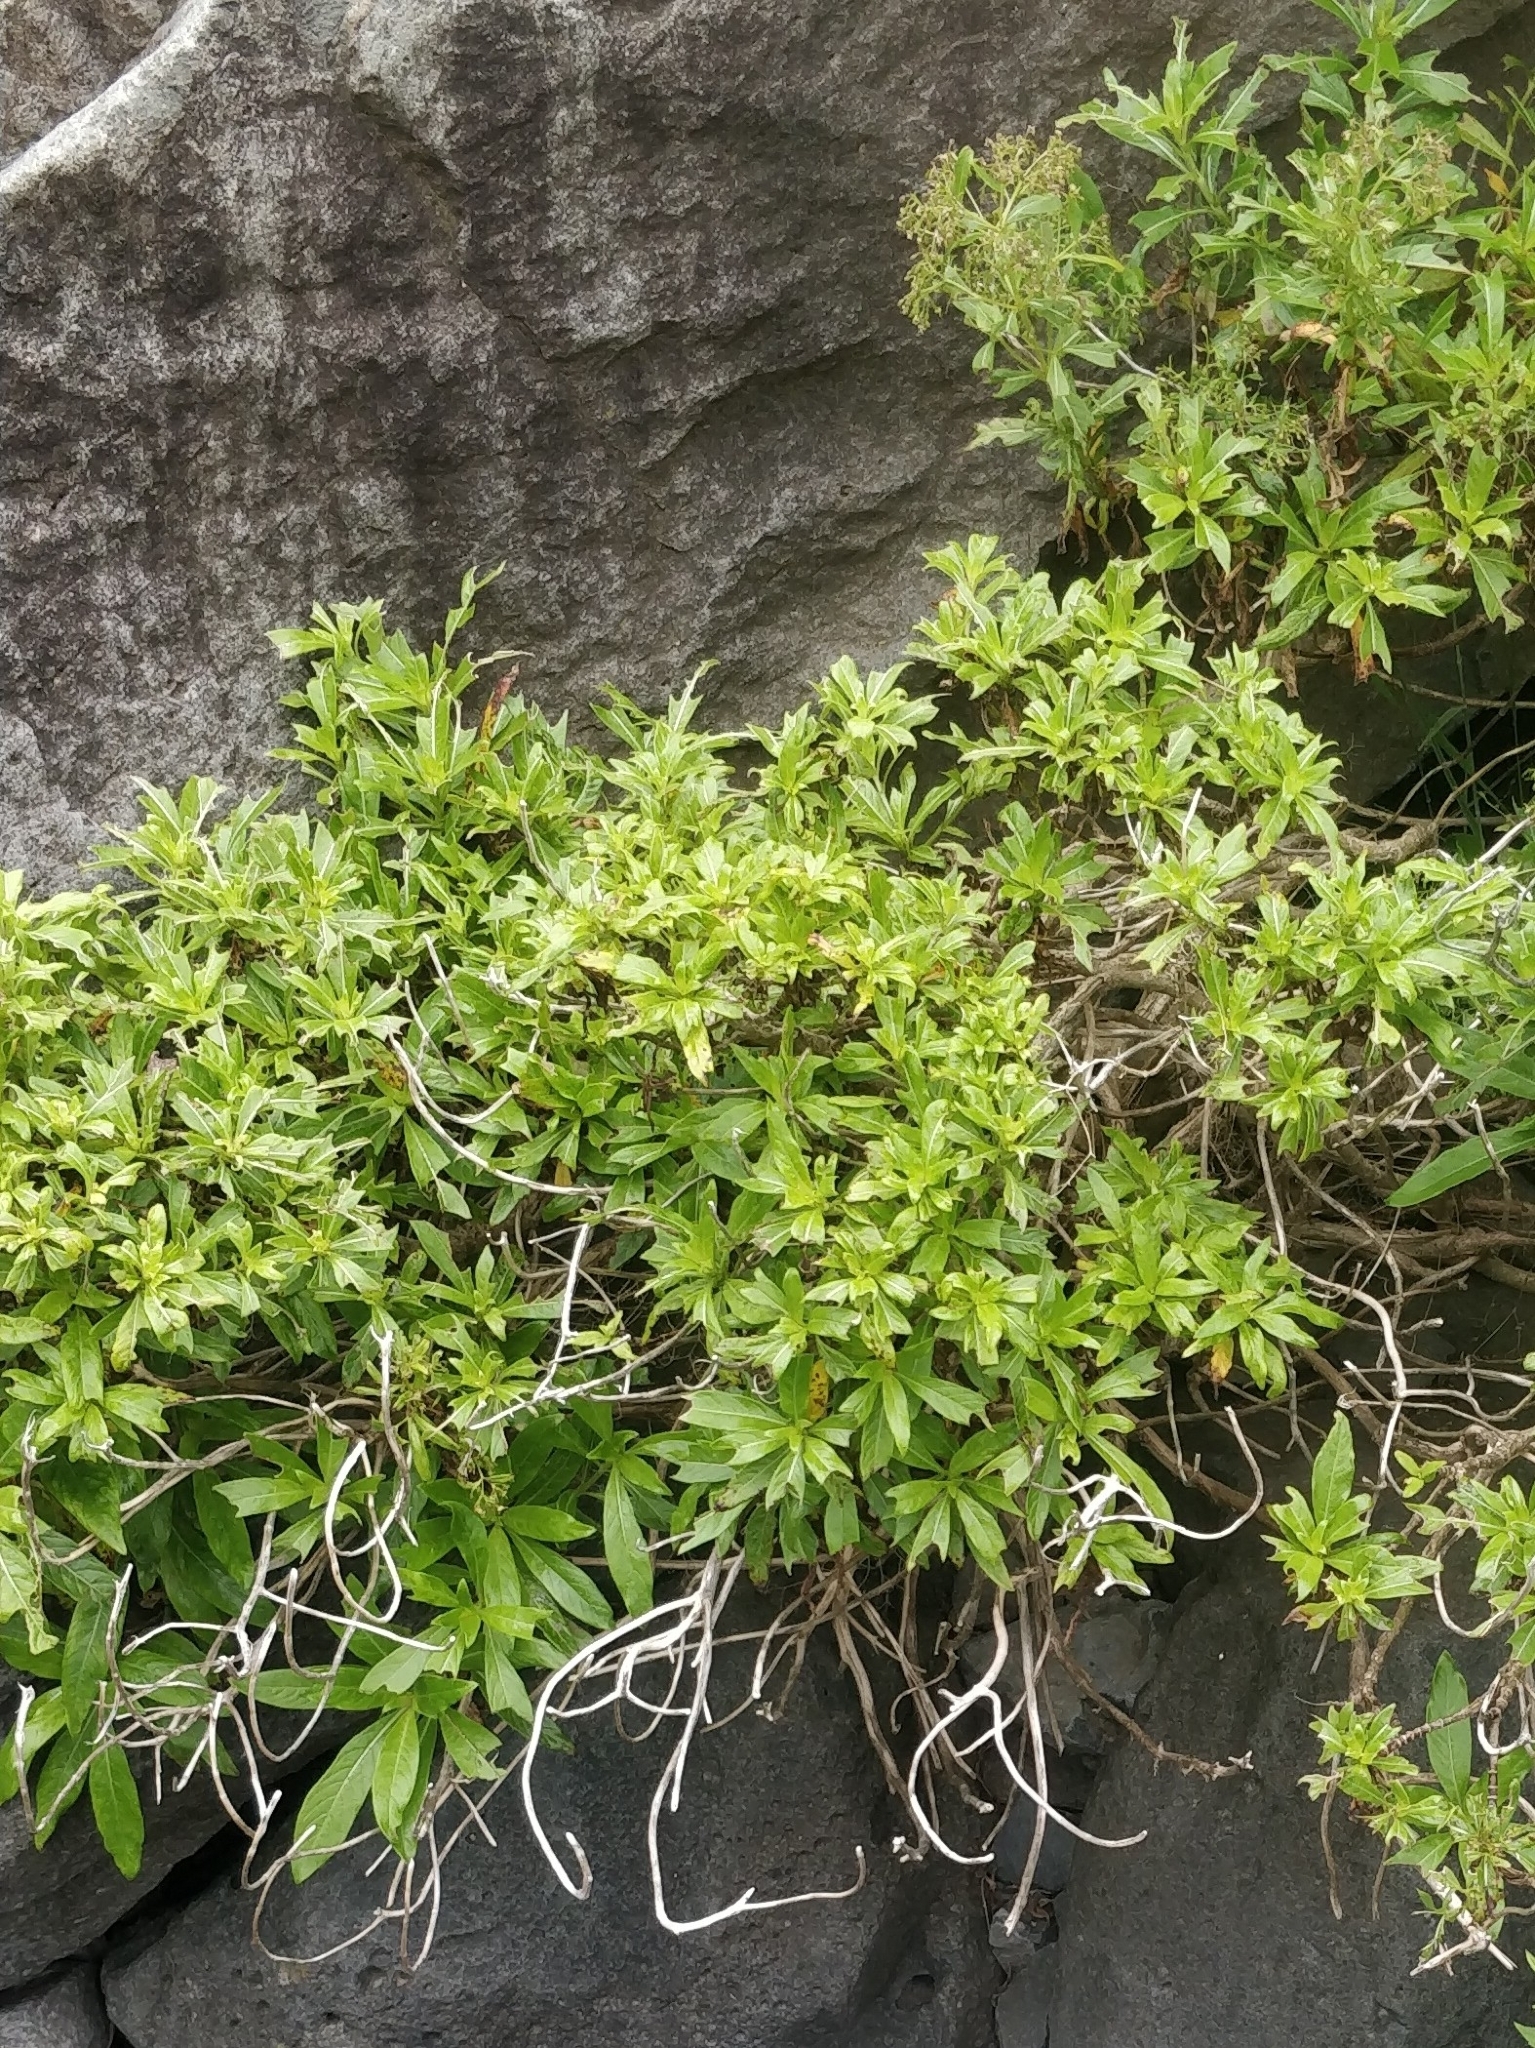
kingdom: Plantae
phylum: Tracheophyta
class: Magnoliopsida
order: Gentianales
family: Rubiaceae
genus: Phyllis
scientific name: Phyllis nobla
